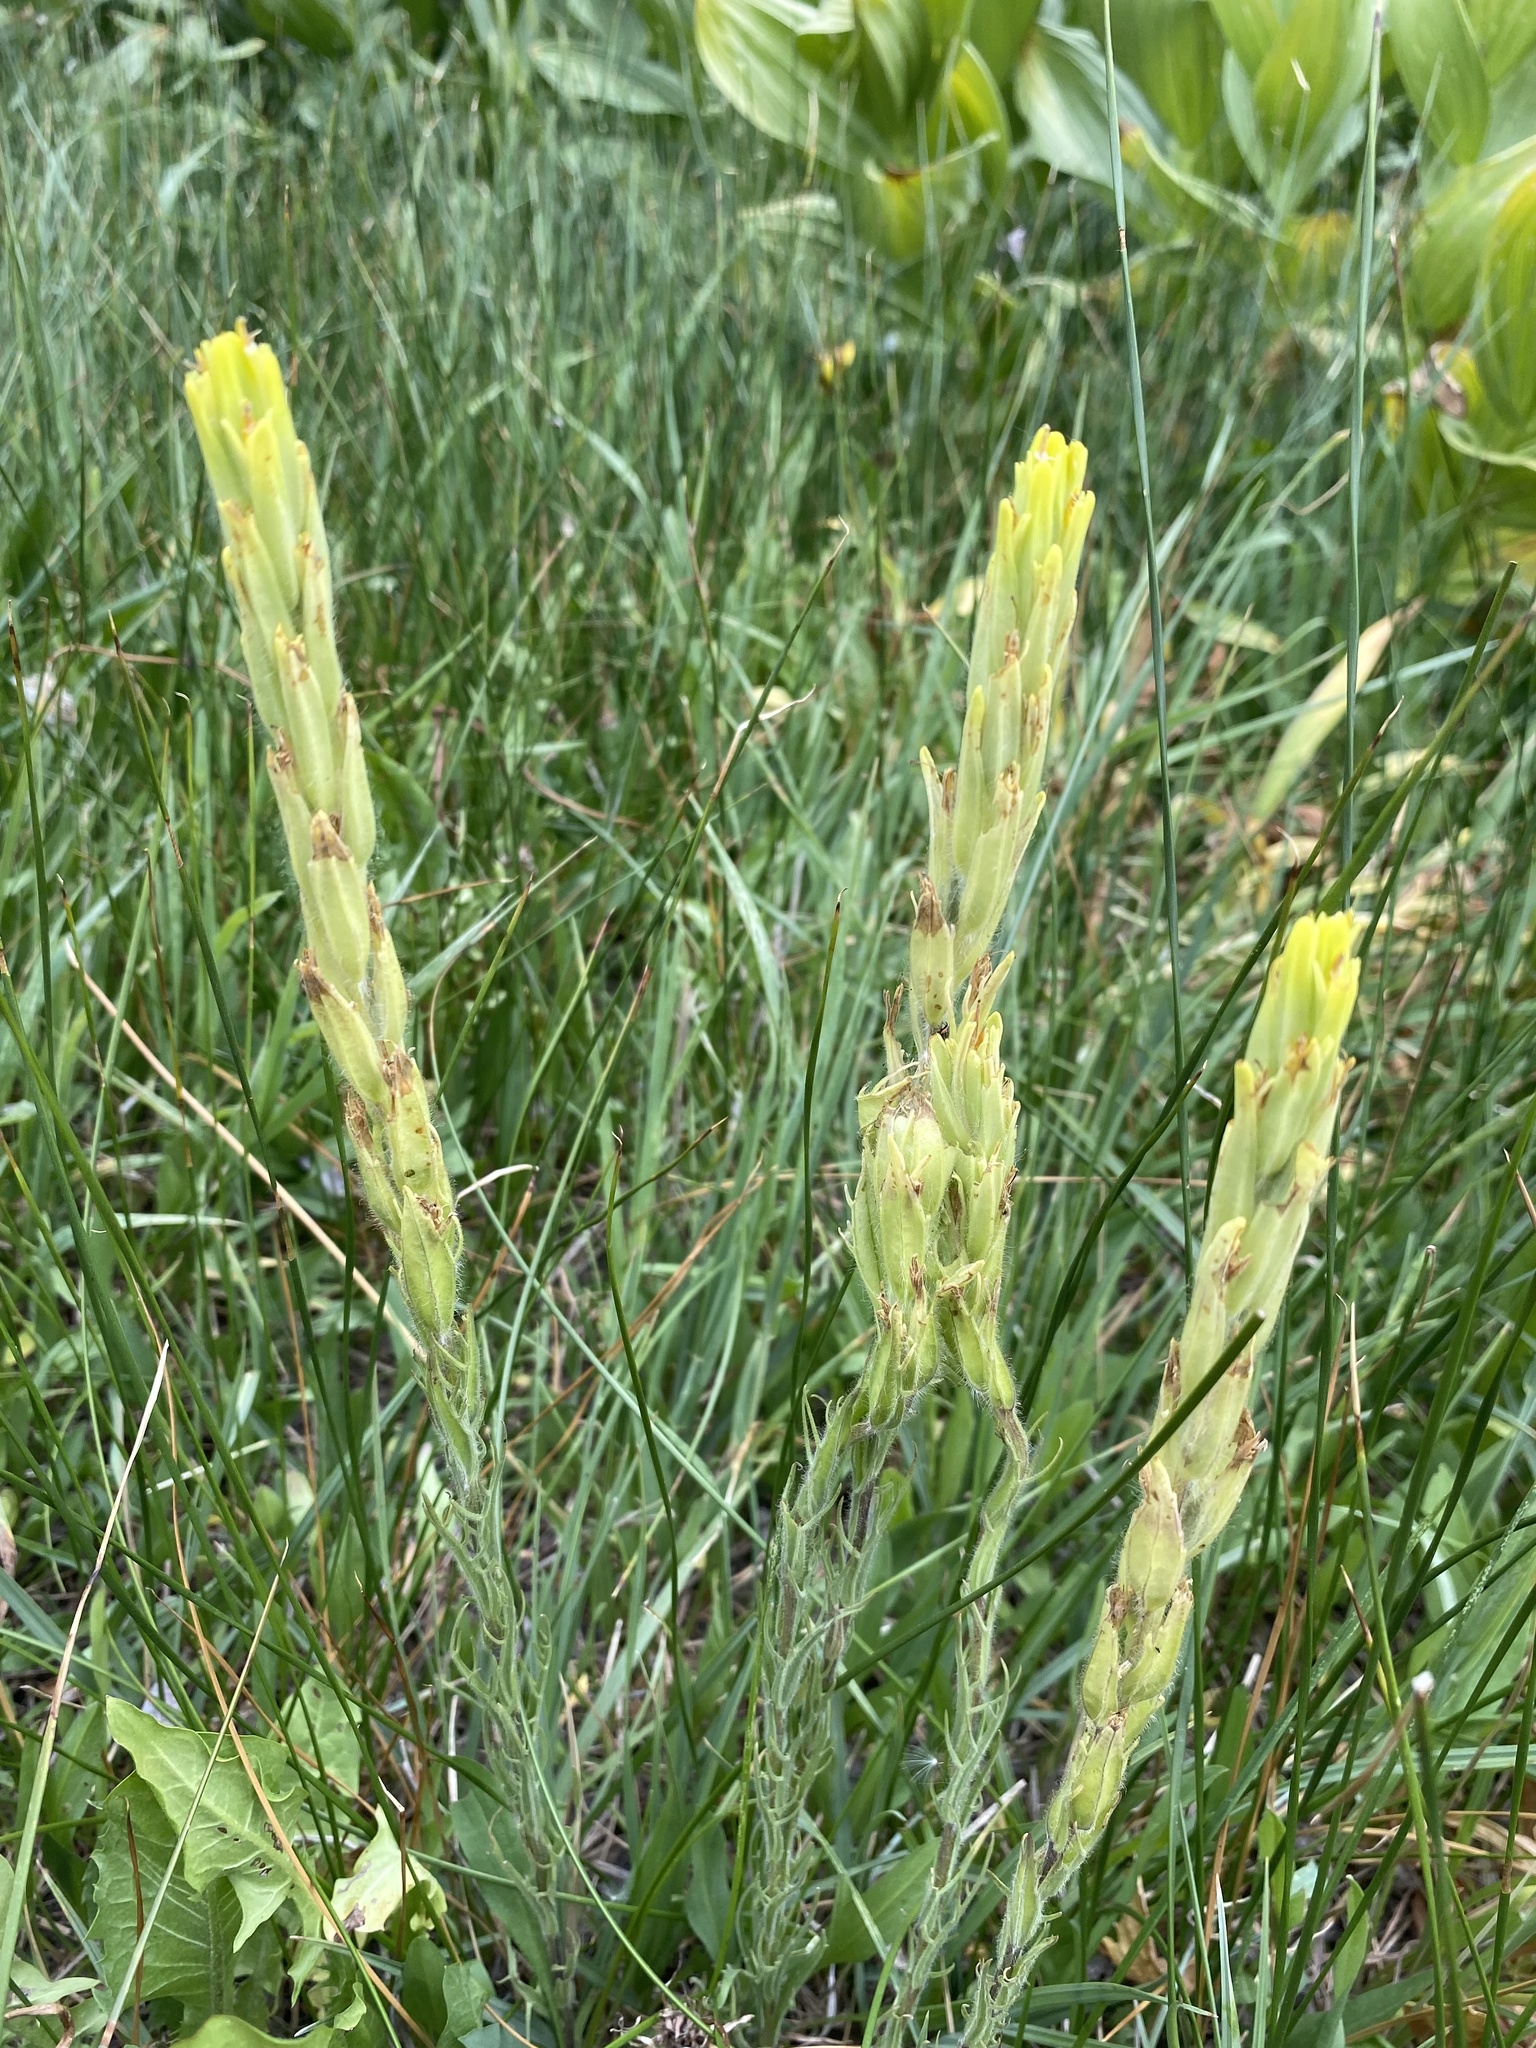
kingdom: Plantae
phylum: Tracheophyta
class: Magnoliopsida
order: Lamiales
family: Orobanchaceae
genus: Castilleja
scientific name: Castilleja cusickii
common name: Cusick's paintbrush
